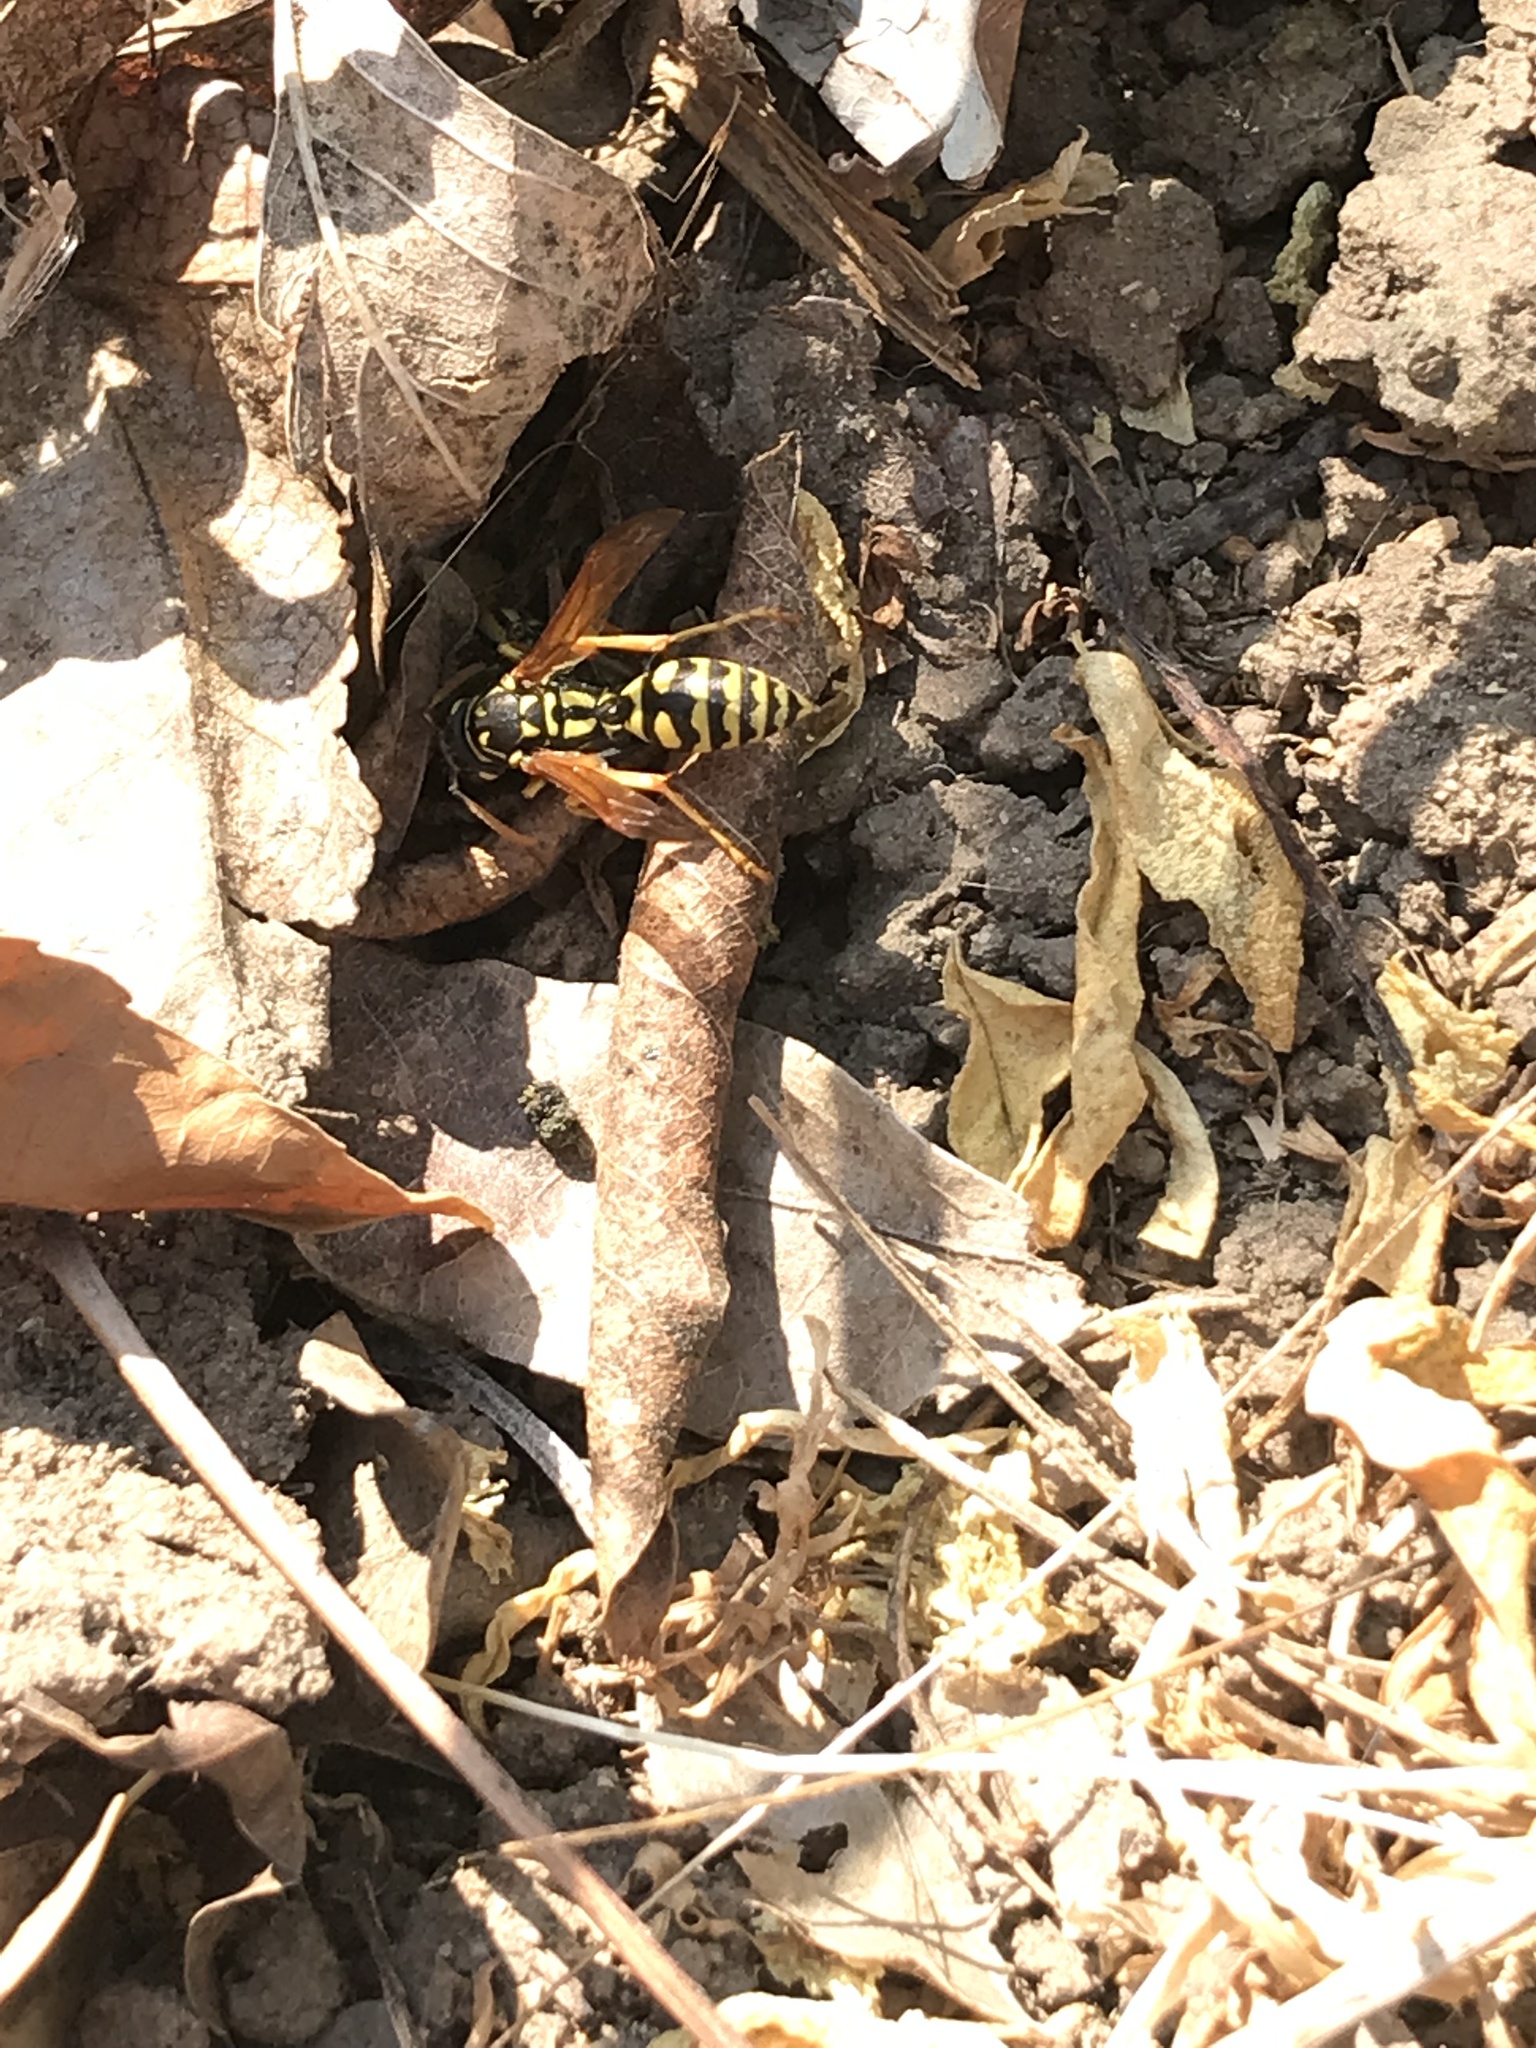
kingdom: Animalia
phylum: Arthropoda
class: Insecta
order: Hymenoptera
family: Eumenidae
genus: Polistes
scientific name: Polistes dominula
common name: Paper wasp
